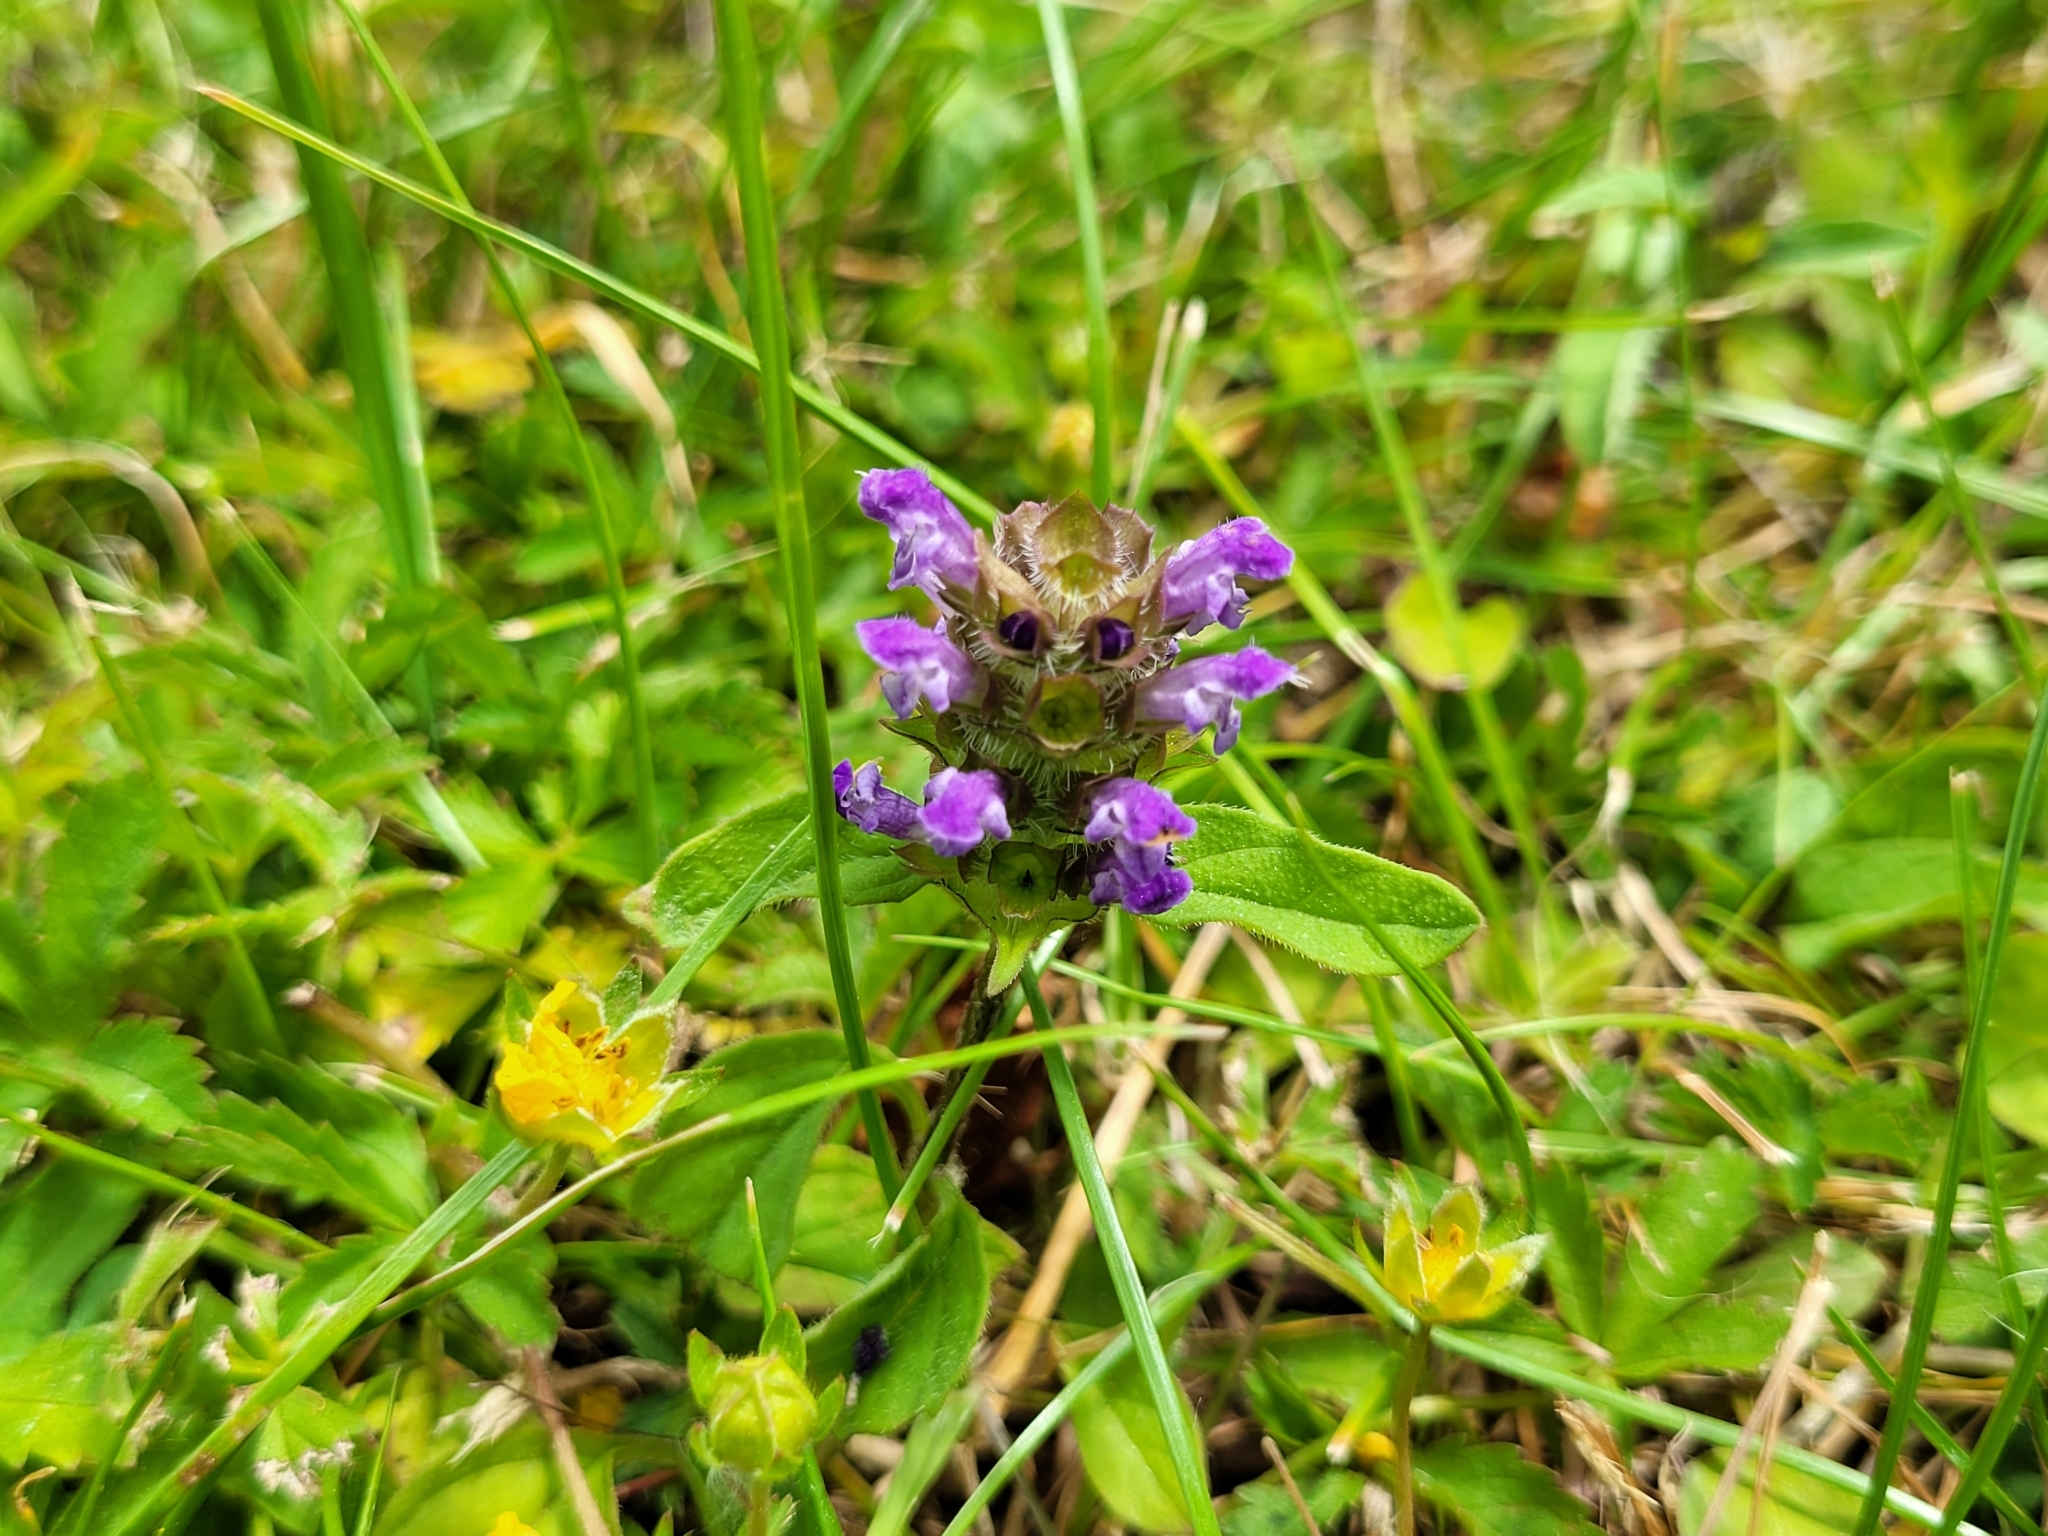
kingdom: Plantae
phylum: Tracheophyta
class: Magnoliopsida
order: Lamiales
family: Lamiaceae
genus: Prunella
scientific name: Prunella vulgaris
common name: Heal-all
